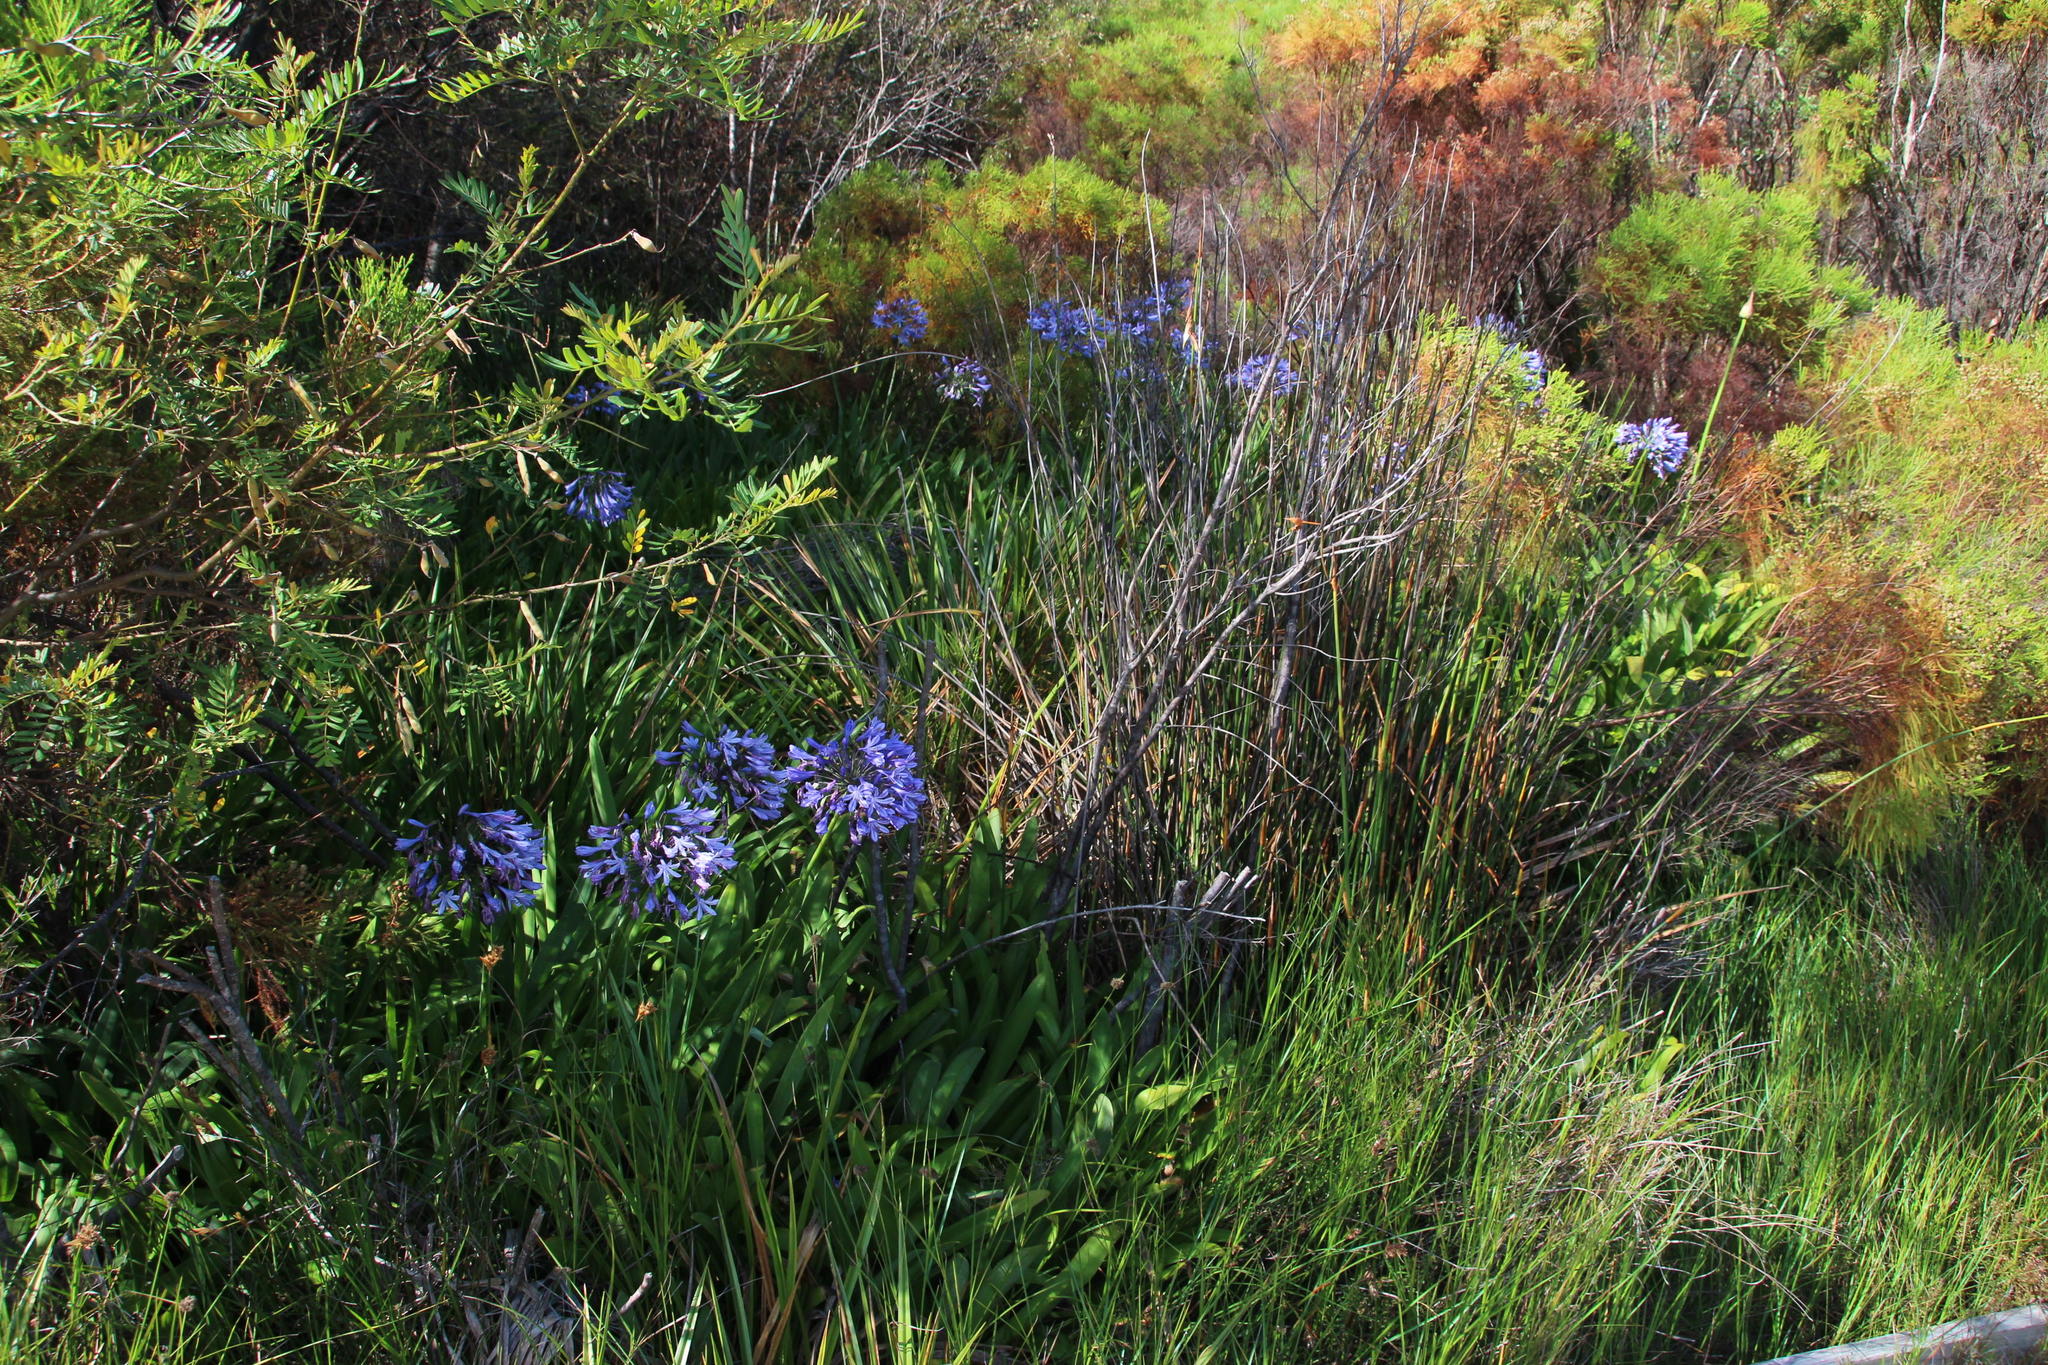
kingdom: Plantae
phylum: Tracheophyta
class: Liliopsida
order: Asparagales
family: Amaryllidaceae
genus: Agapanthus
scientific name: Agapanthus praecox
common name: African-lily
